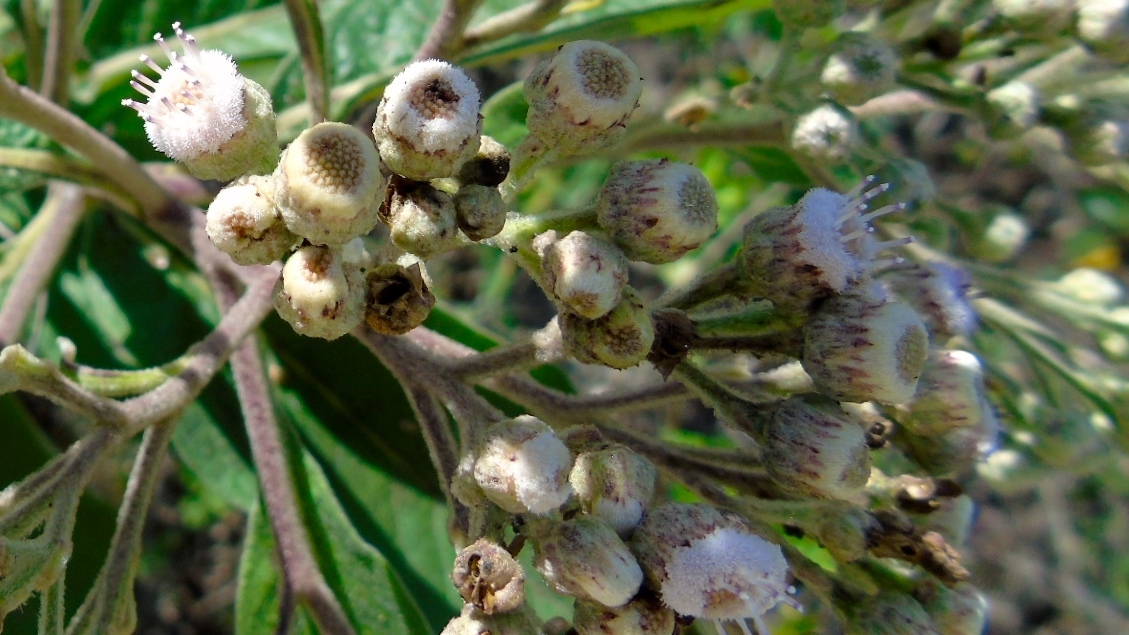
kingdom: Plantae
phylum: Tracheophyta
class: Magnoliopsida
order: Asterales
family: Asteraceae
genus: Pluchea
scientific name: Pluchea carolinensis
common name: Marsh fleabane
